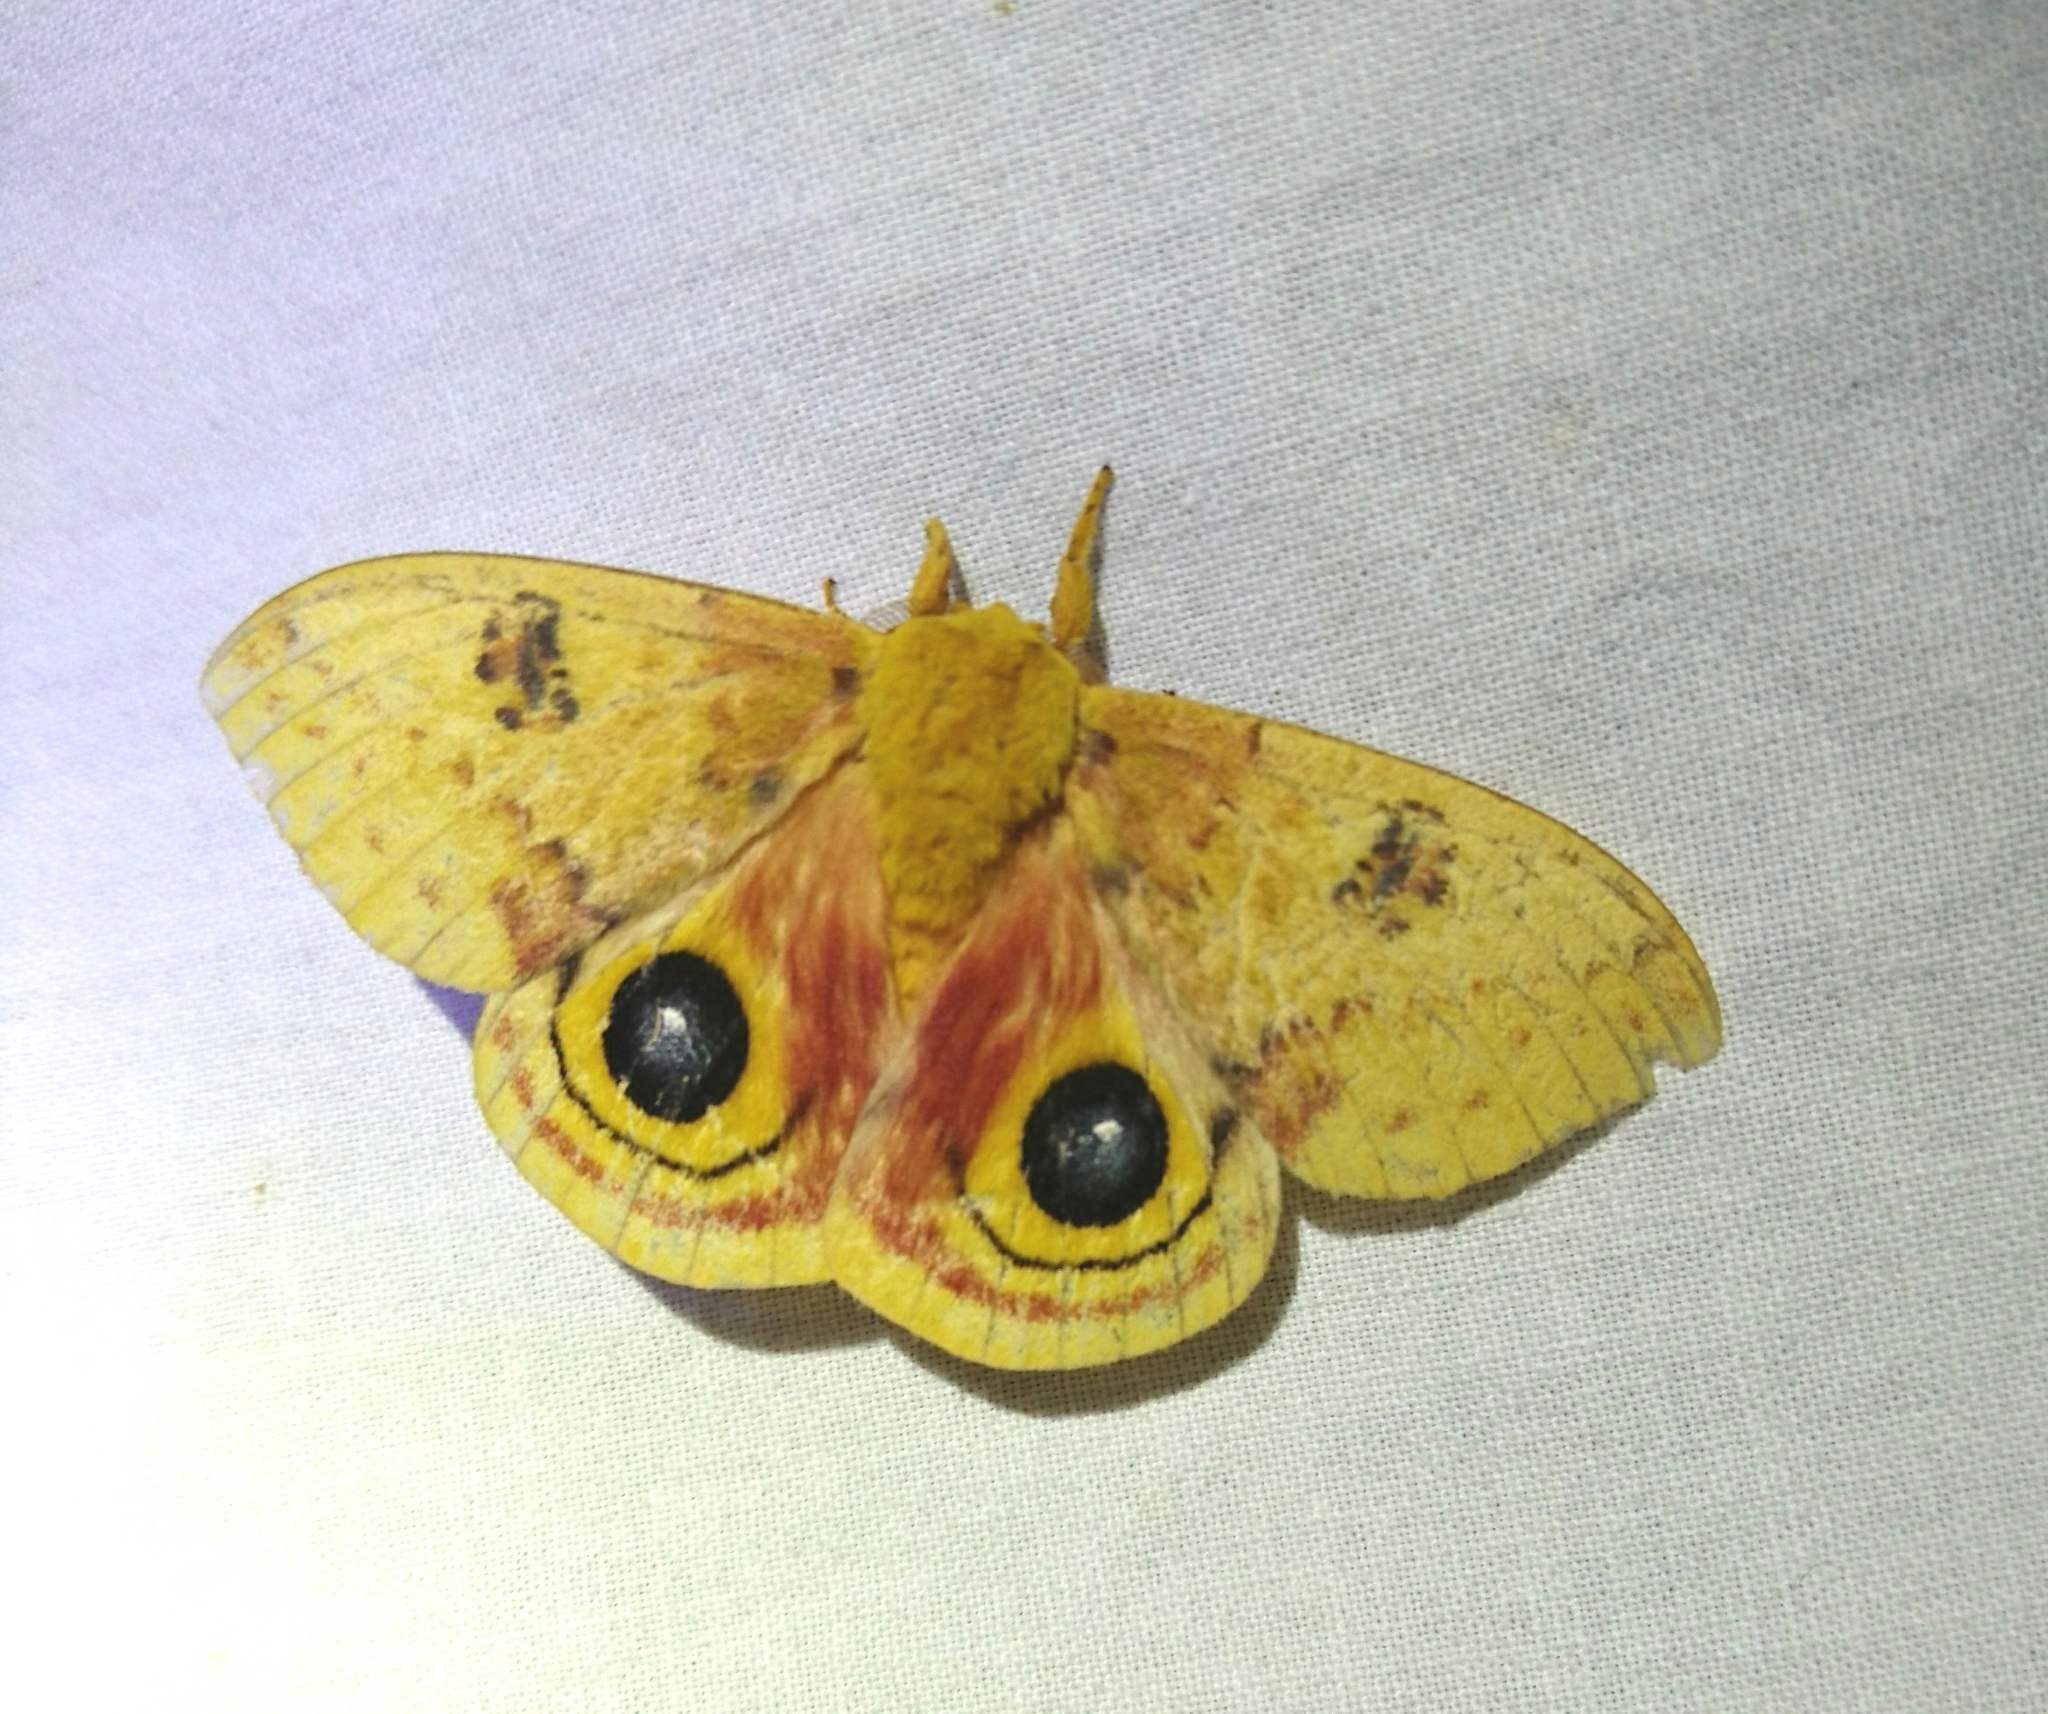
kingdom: Animalia
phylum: Arthropoda
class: Insecta
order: Lepidoptera
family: Saturniidae
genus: Automeris
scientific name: Automeris io
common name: Io moth
